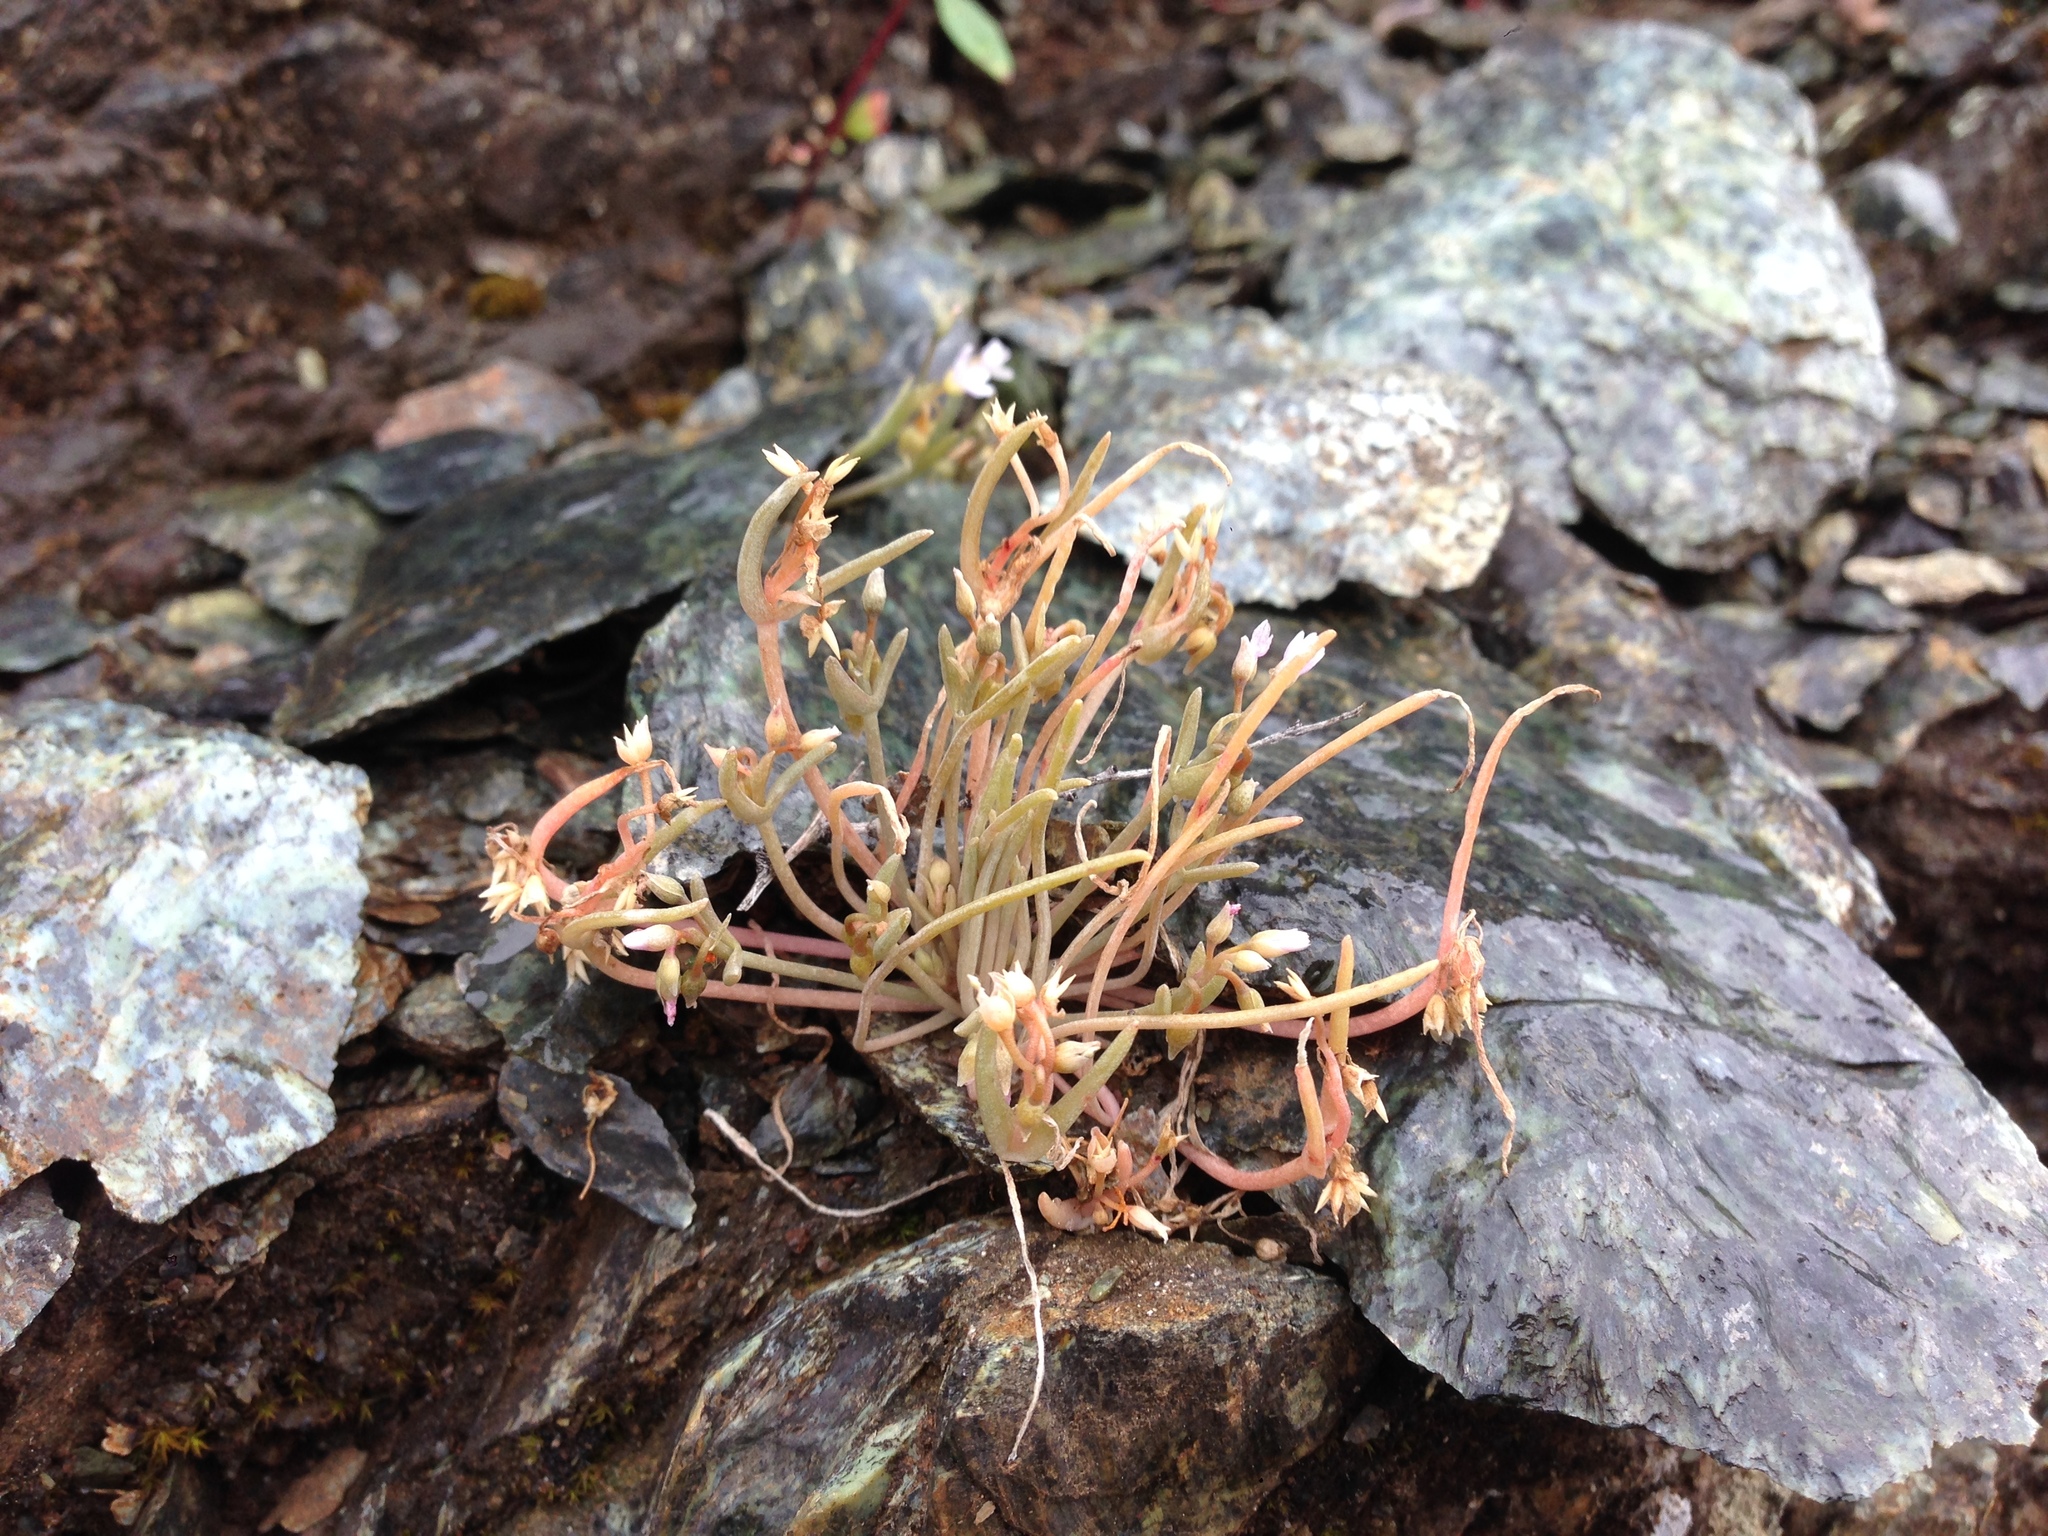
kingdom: Plantae
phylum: Tracheophyta
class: Magnoliopsida
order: Caryophyllales
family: Montiaceae
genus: Claytonia
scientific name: Claytonia exigua
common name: Pale spring beauty
